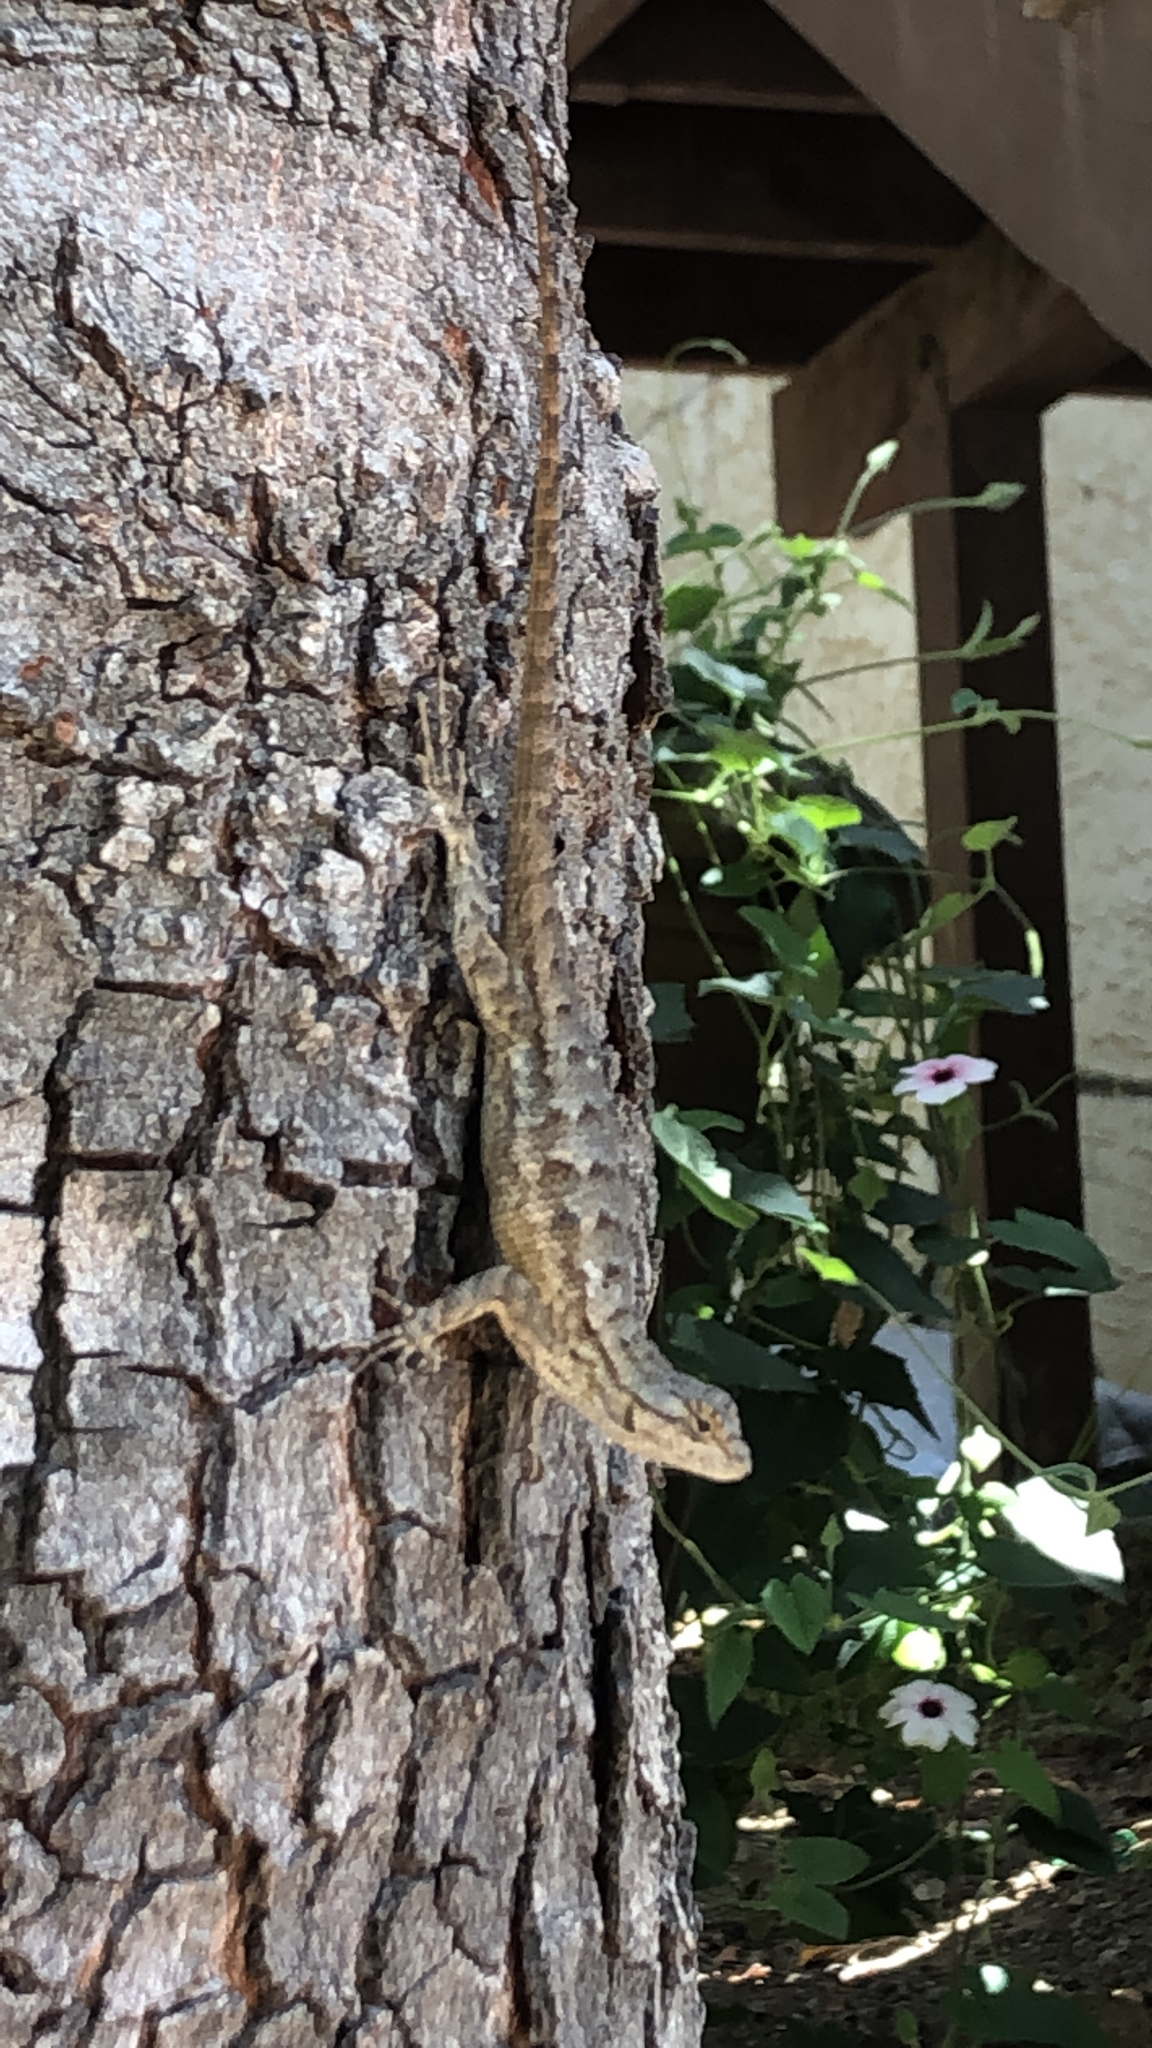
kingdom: Animalia
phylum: Chordata
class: Squamata
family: Phrynosomatidae
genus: Sceloporus
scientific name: Sceloporus occidentalis
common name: Western fence lizard
